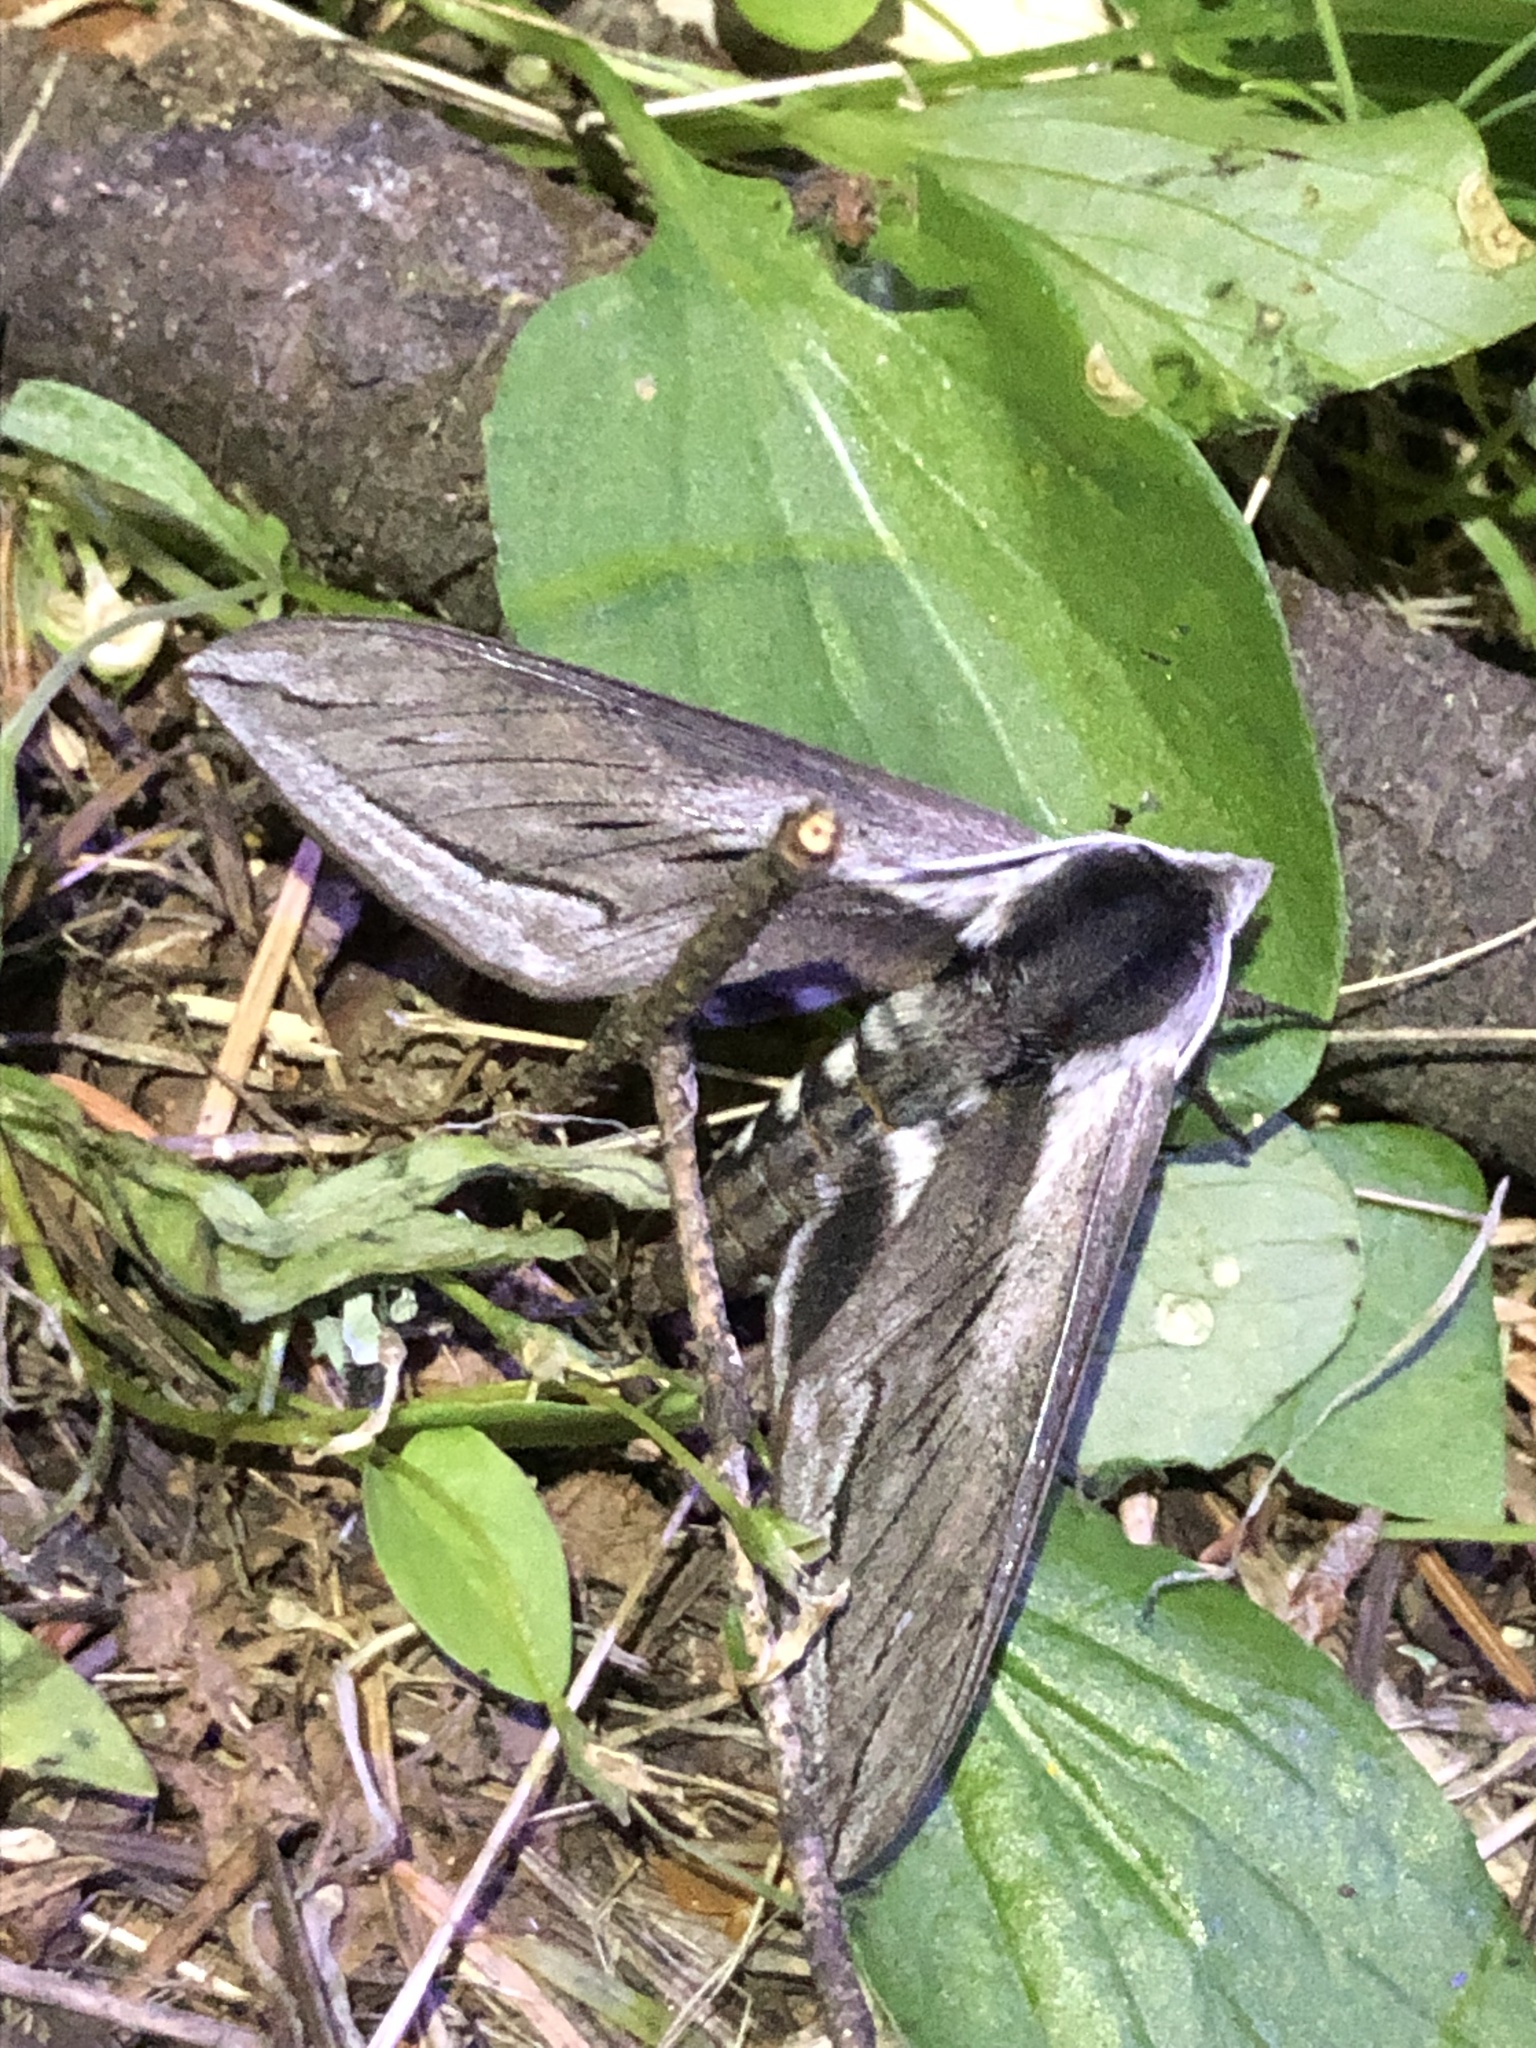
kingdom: Animalia
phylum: Arthropoda
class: Insecta
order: Lepidoptera
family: Sphingidae
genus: Sphinx
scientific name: Sphinx vashti
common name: Snowberry sphinx
